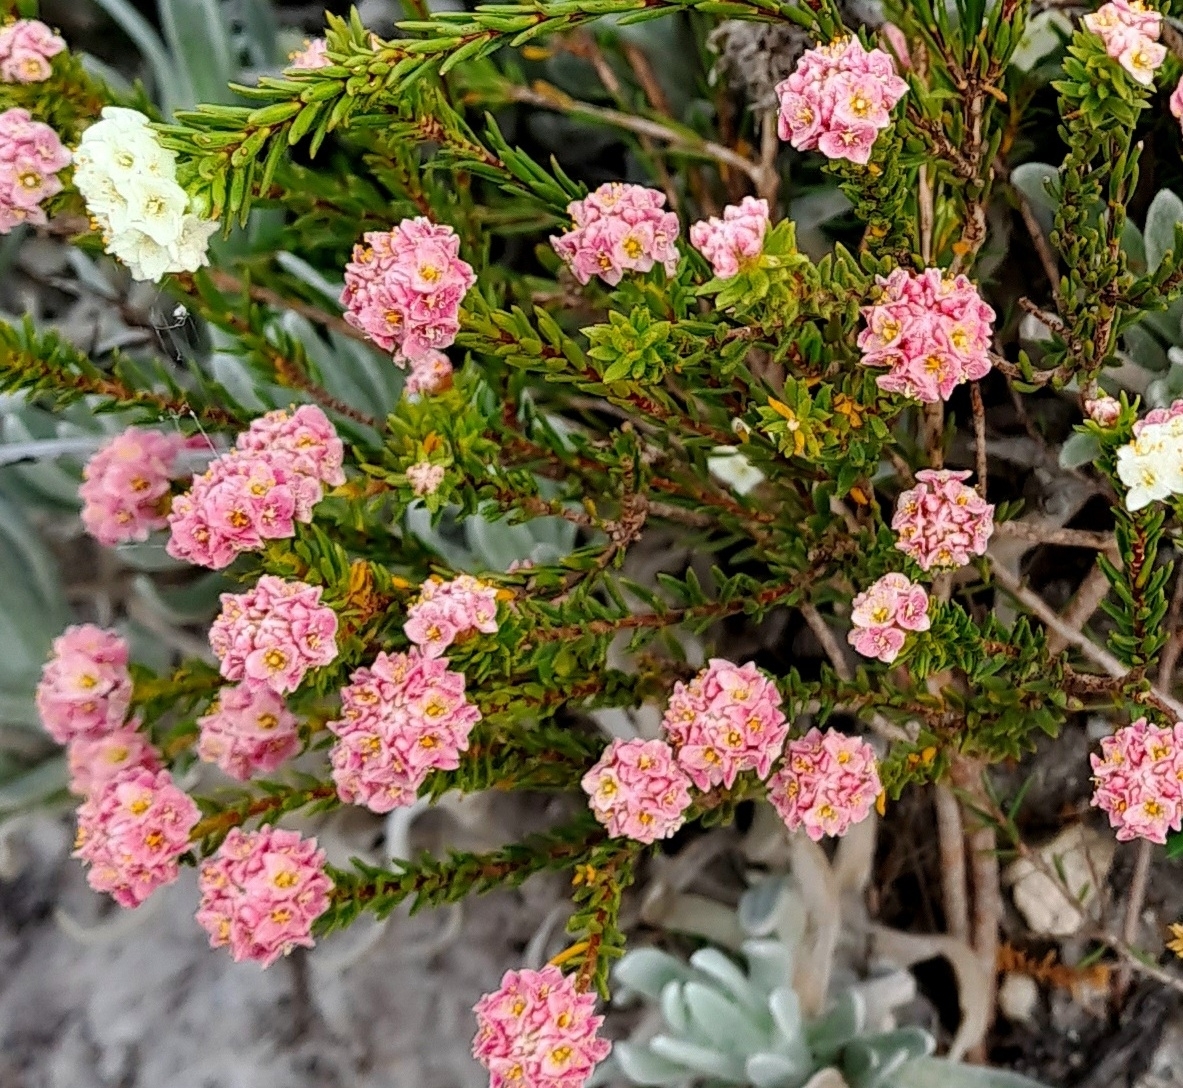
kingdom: Plantae
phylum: Tracheophyta
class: Magnoliopsida
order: Malvales
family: Thymelaeaceae
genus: Lachnaea
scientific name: Lachnaea densiflora
